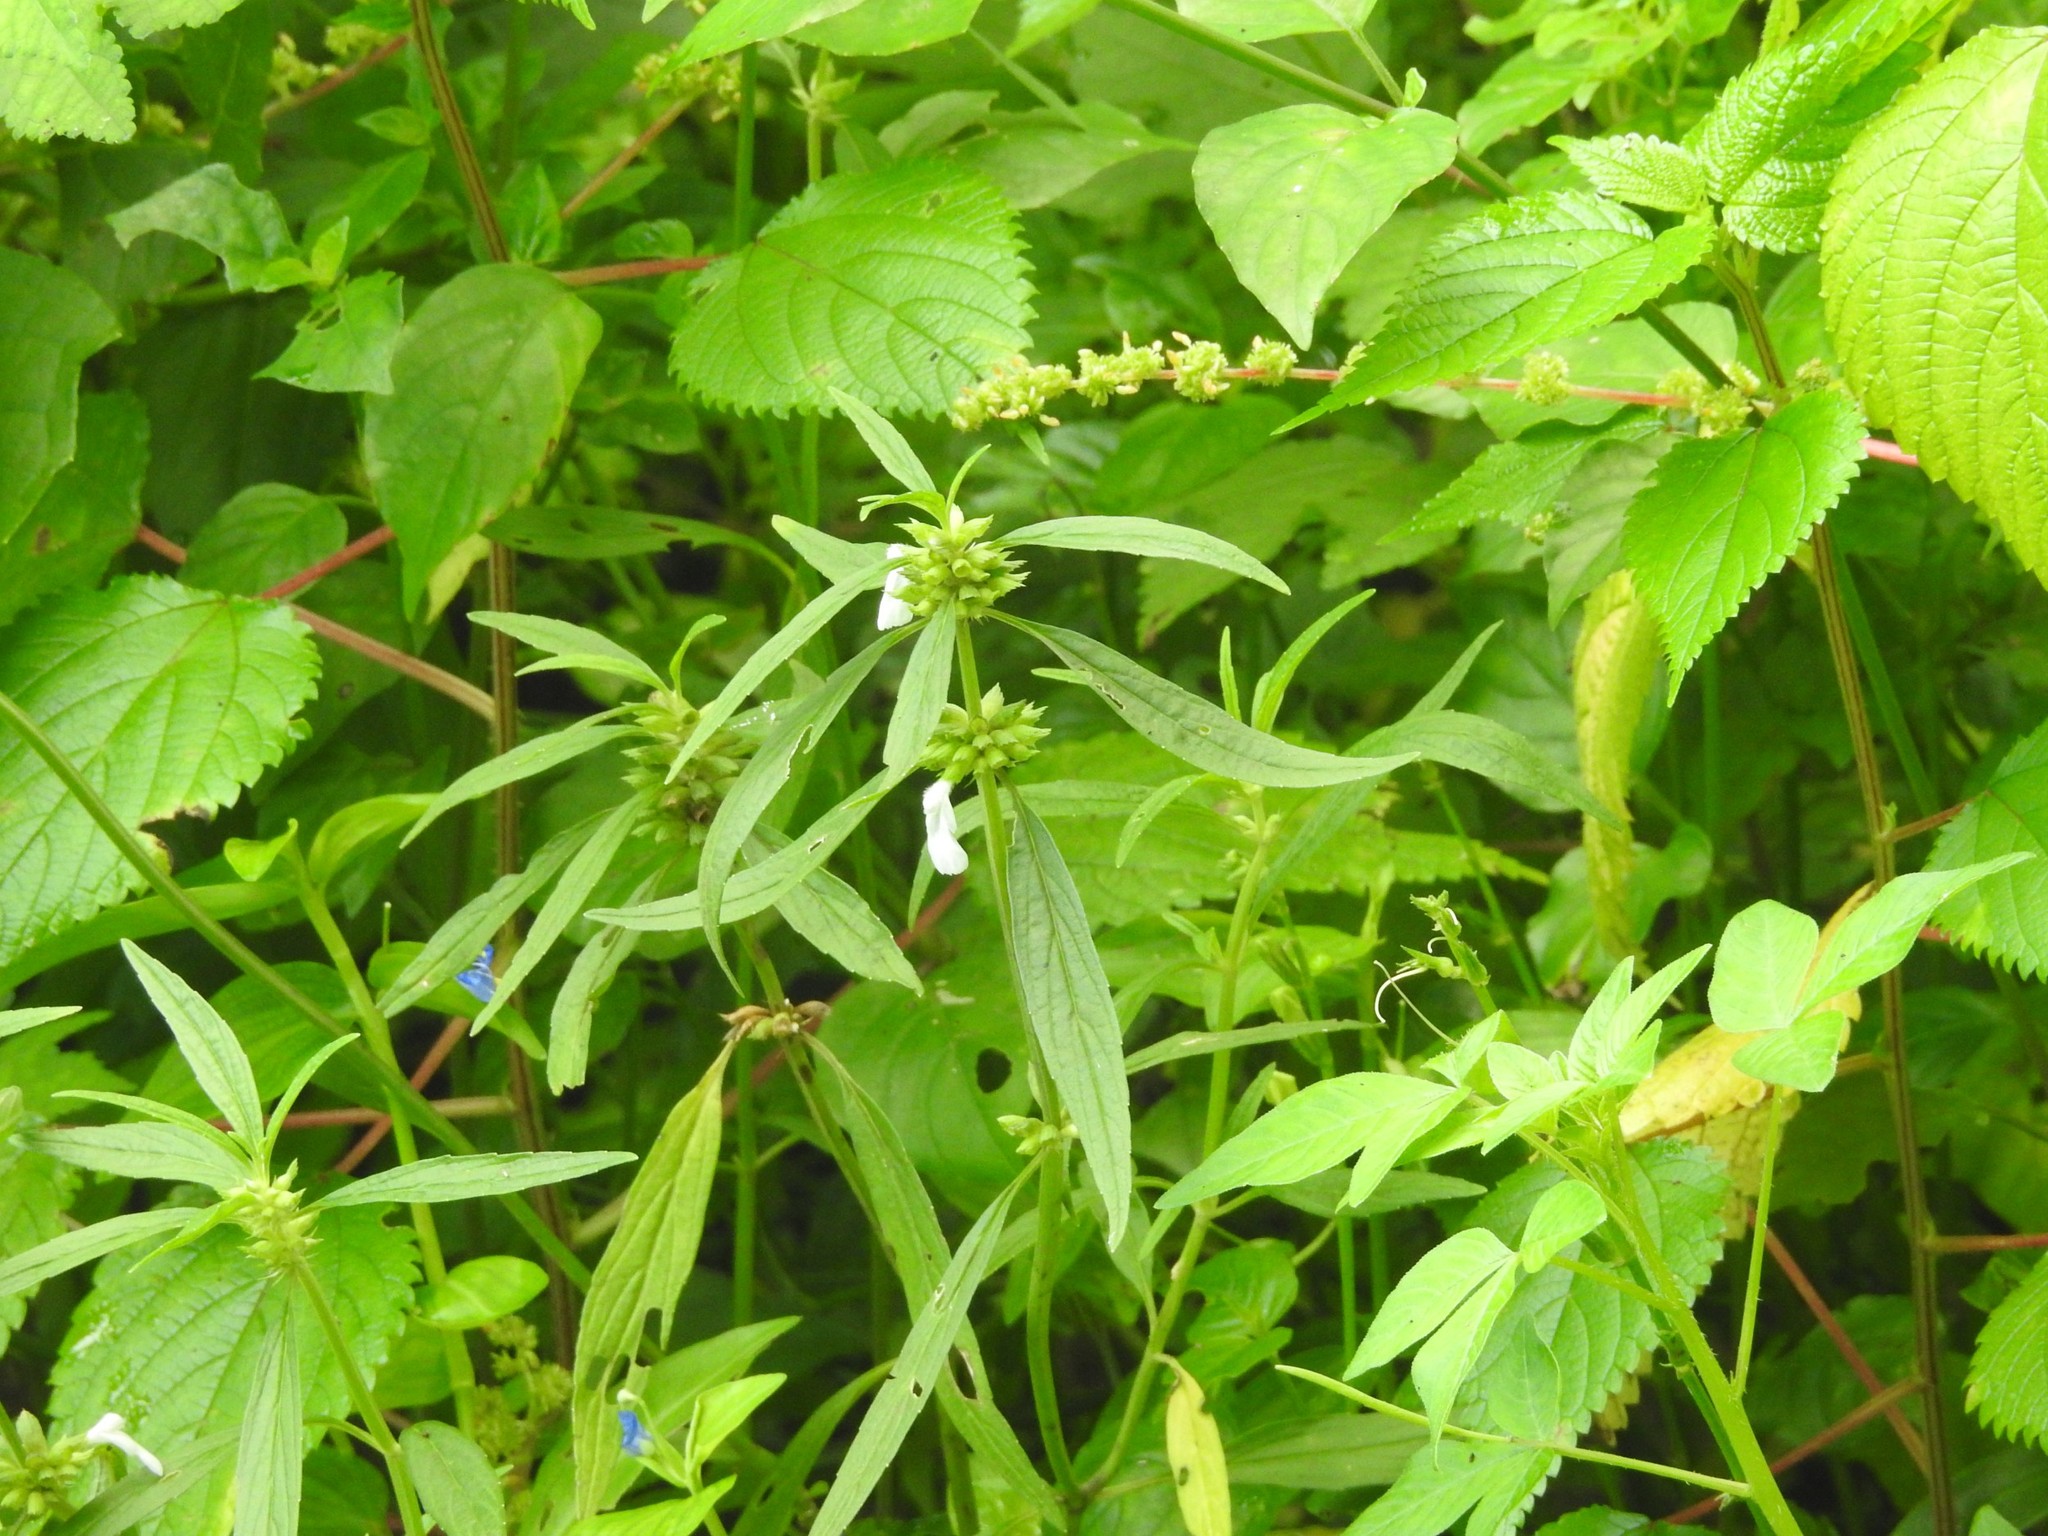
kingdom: Plantae
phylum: Tracheophyta
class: Magnoliopsida
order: Lamiales
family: Lamiaceae
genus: Leucas
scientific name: Leucas zeylanica
